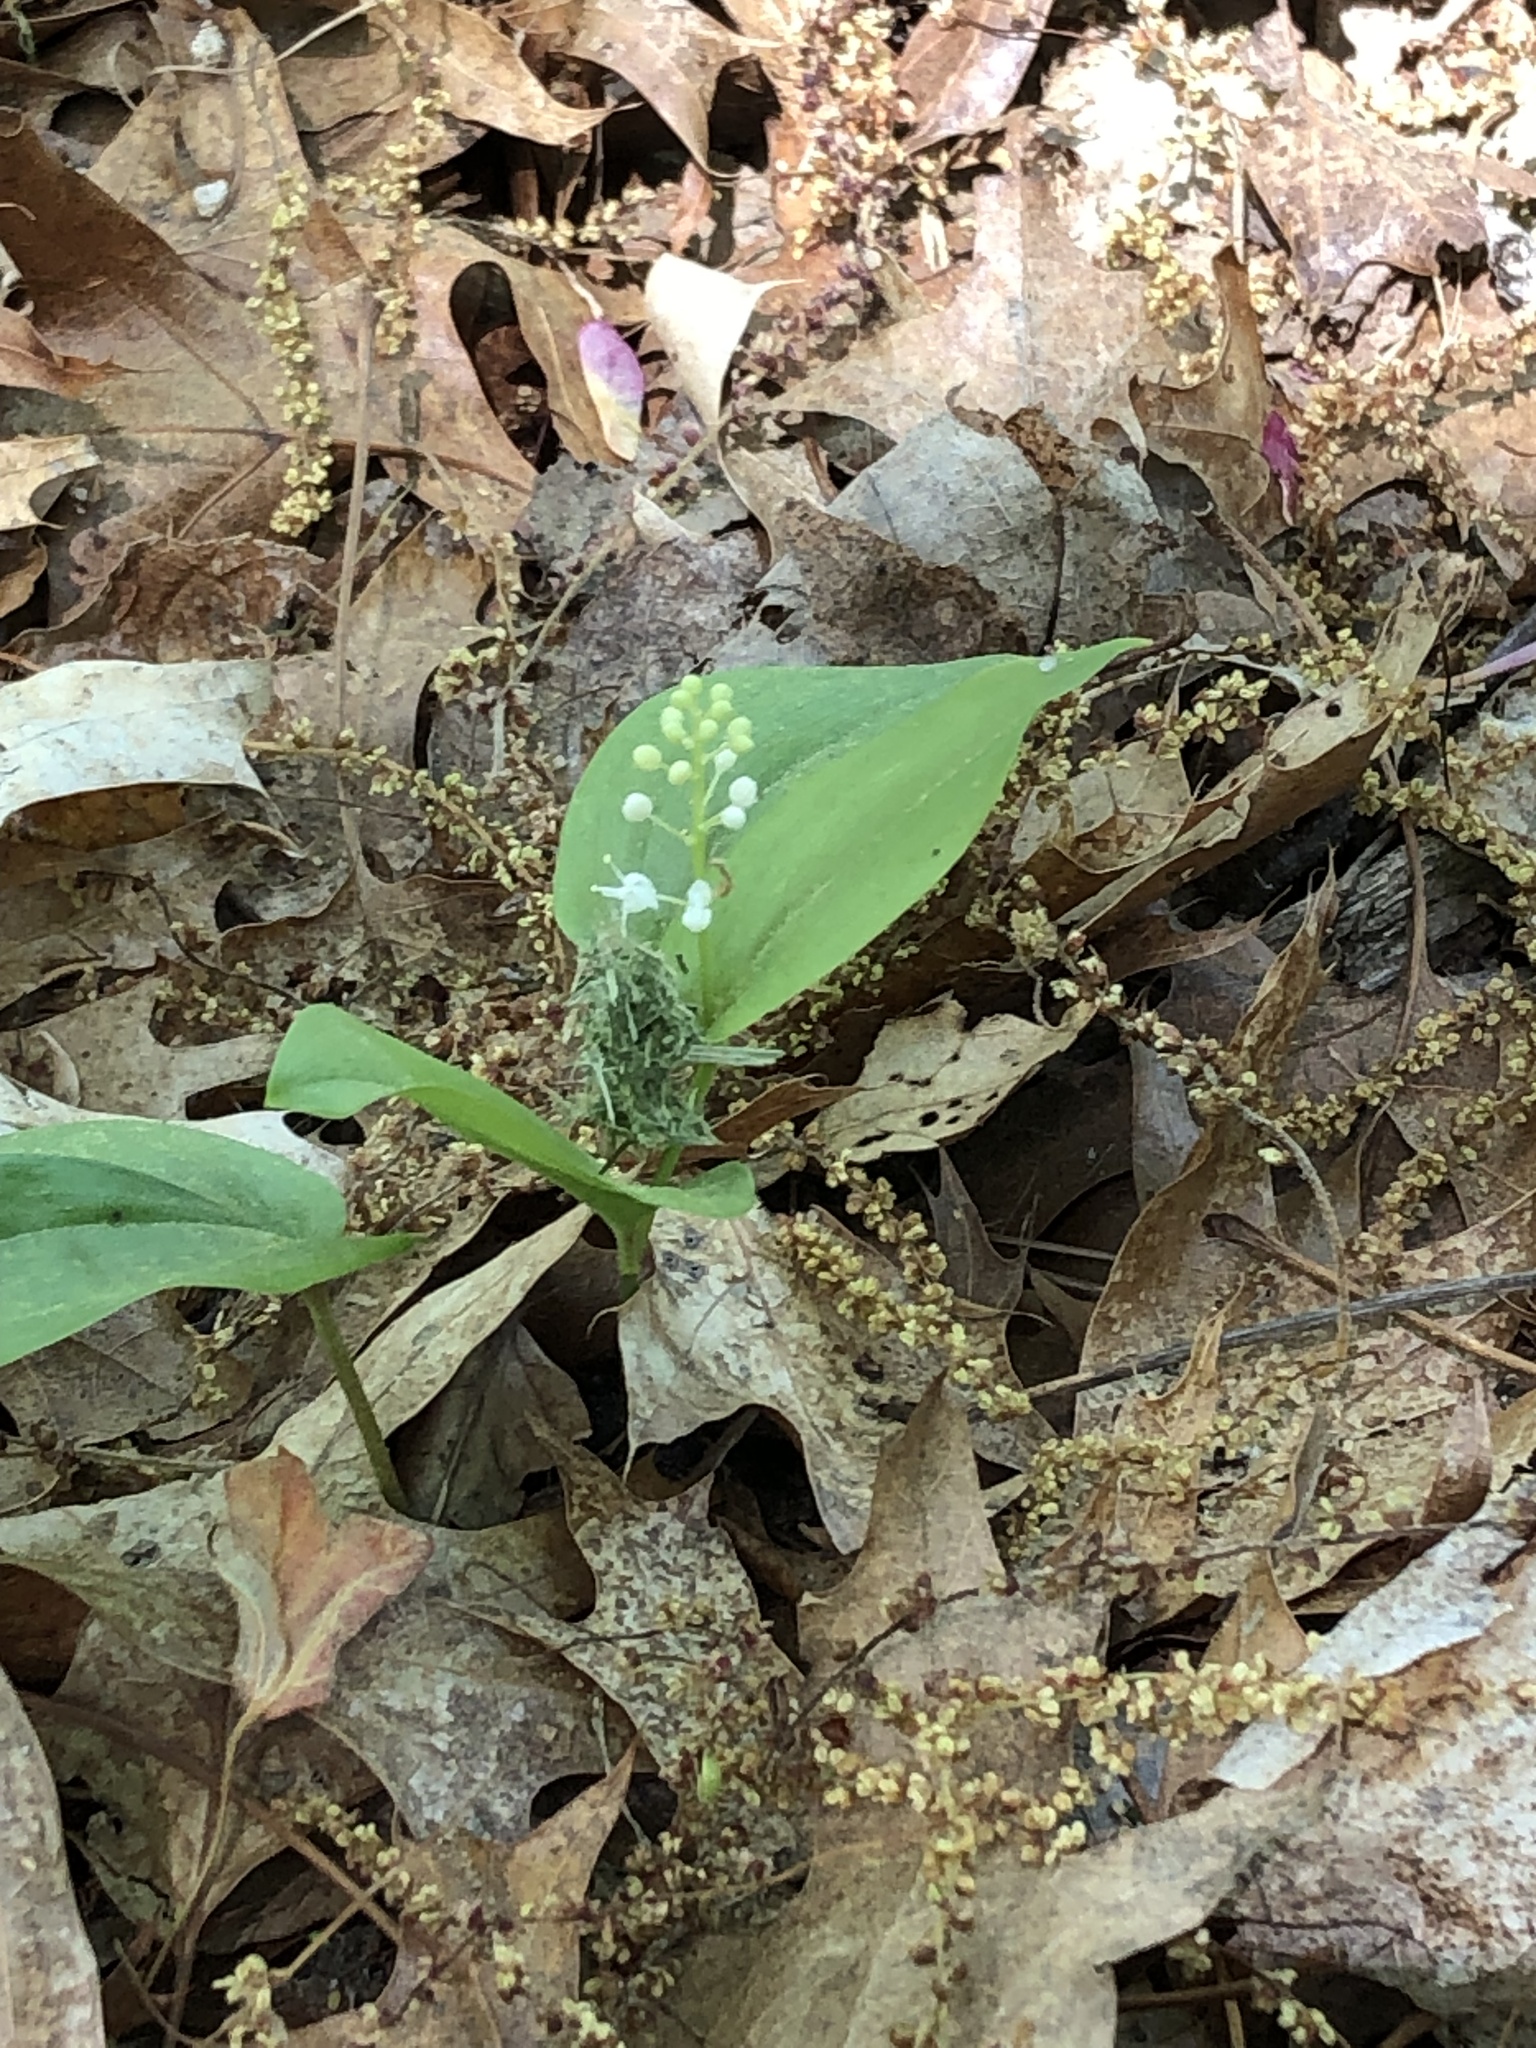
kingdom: Plantae
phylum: Tracheophyta
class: Liliopsida
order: Asparagales
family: Asparagaceae
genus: Maianthemum
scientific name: Maianthemum canadense
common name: False lily-of-the-valley
